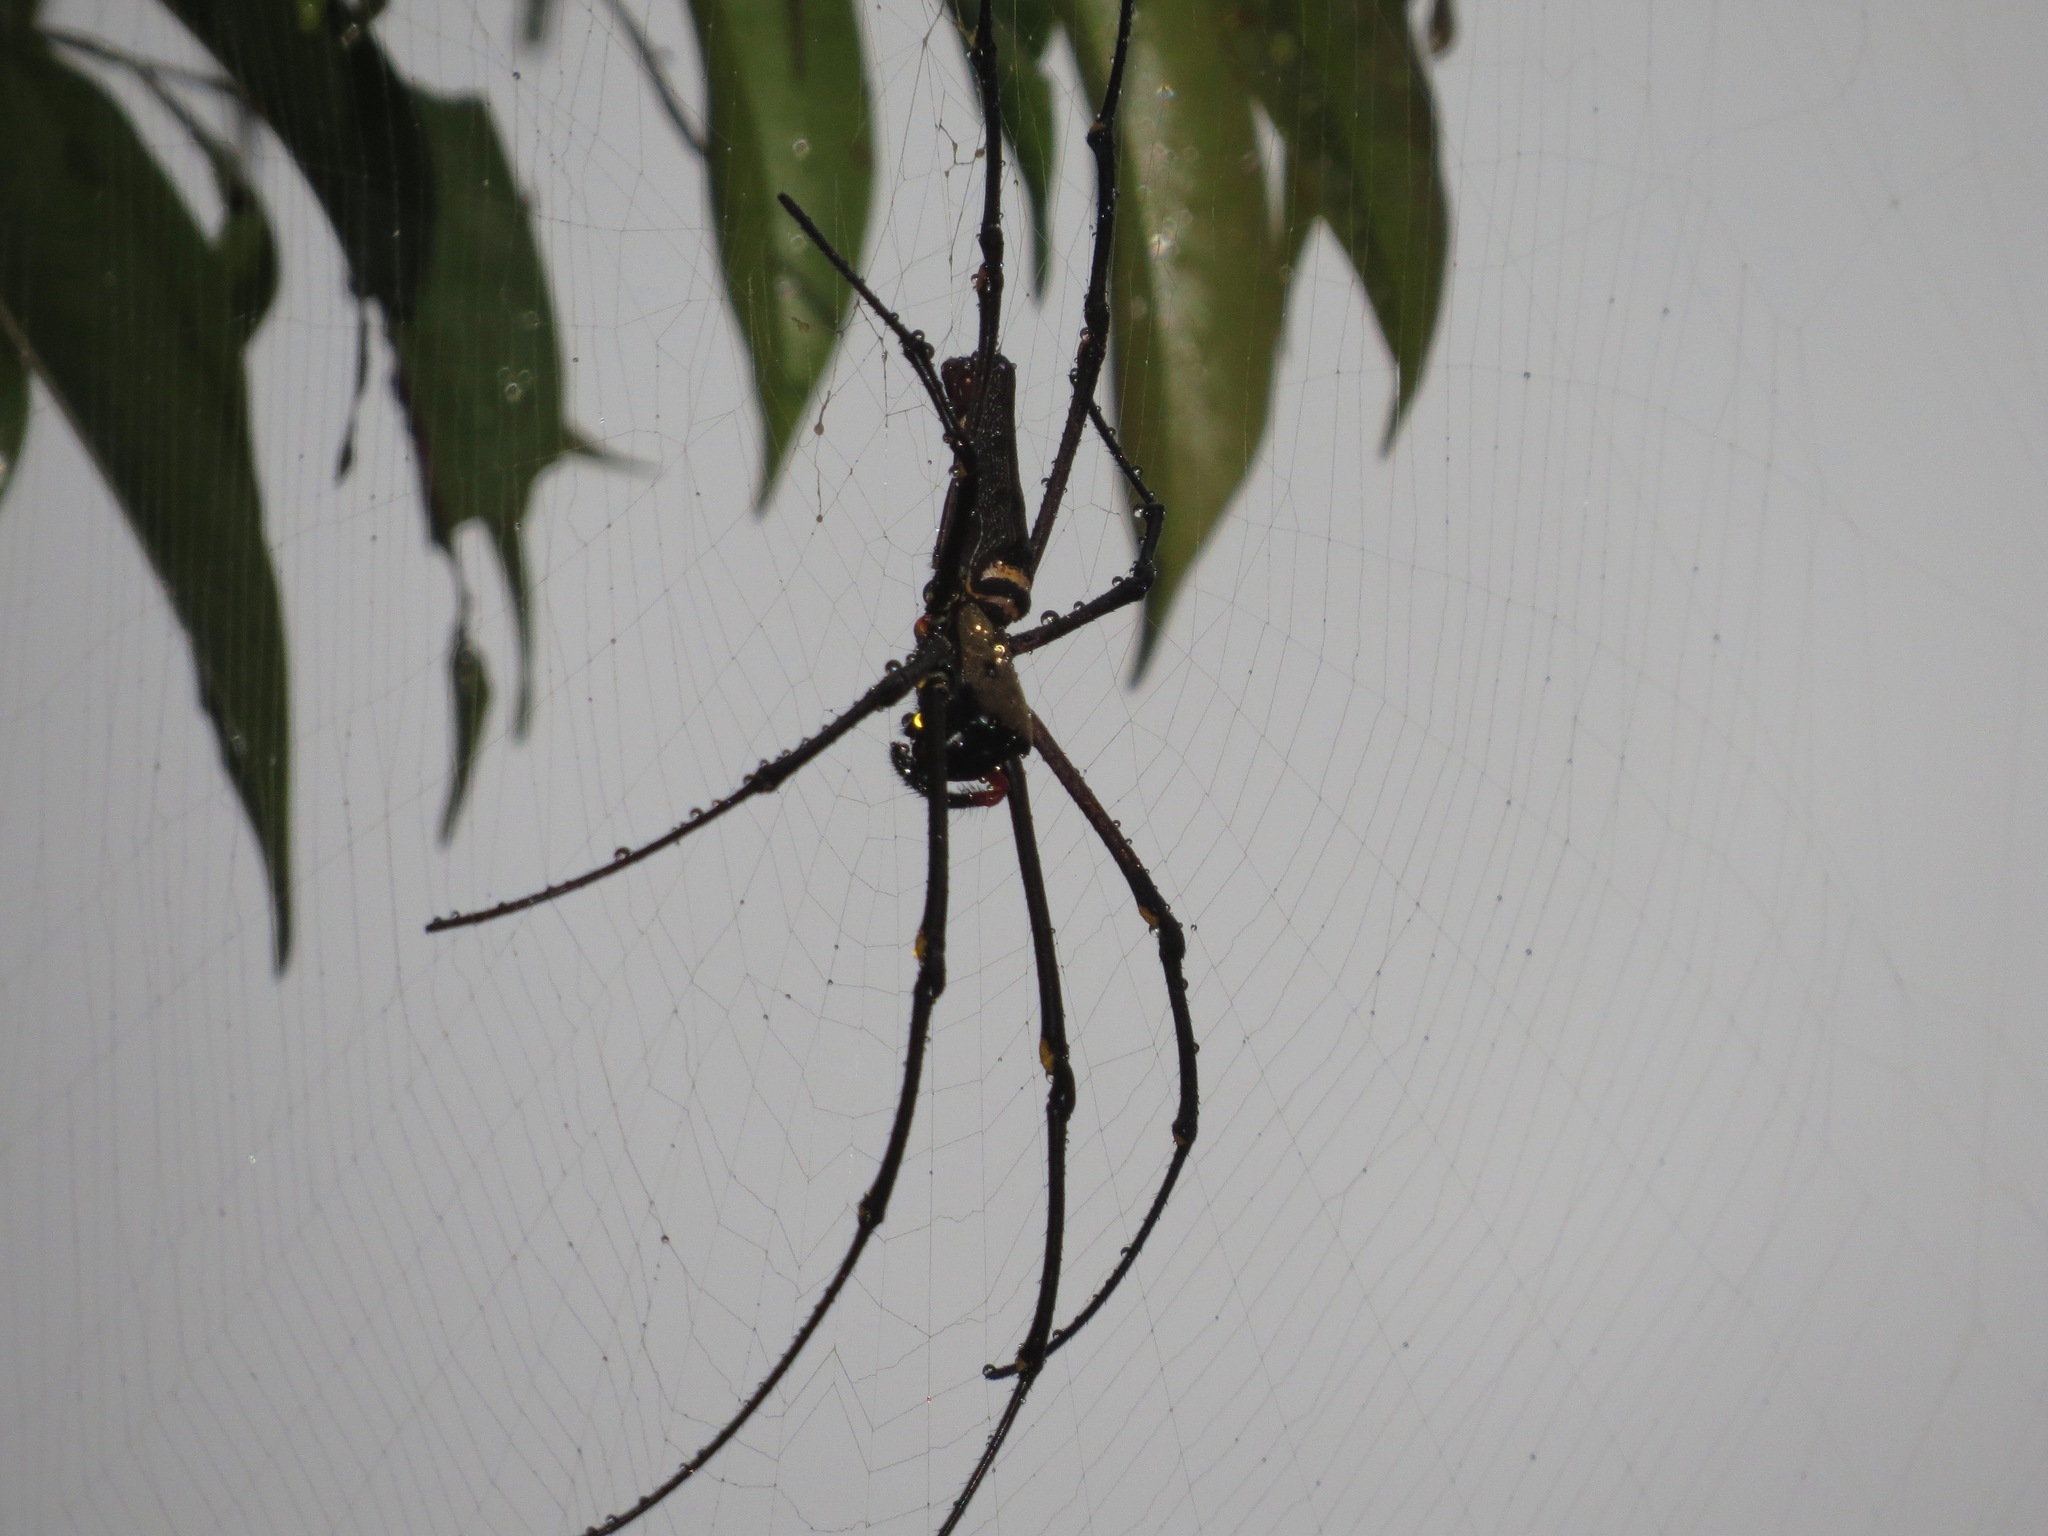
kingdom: Animalia
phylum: Arthropoda
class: Arachnida
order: Araneae
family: Araneidae
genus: Nephila
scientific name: Nephila pilipes
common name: Giant golden orb weaver
